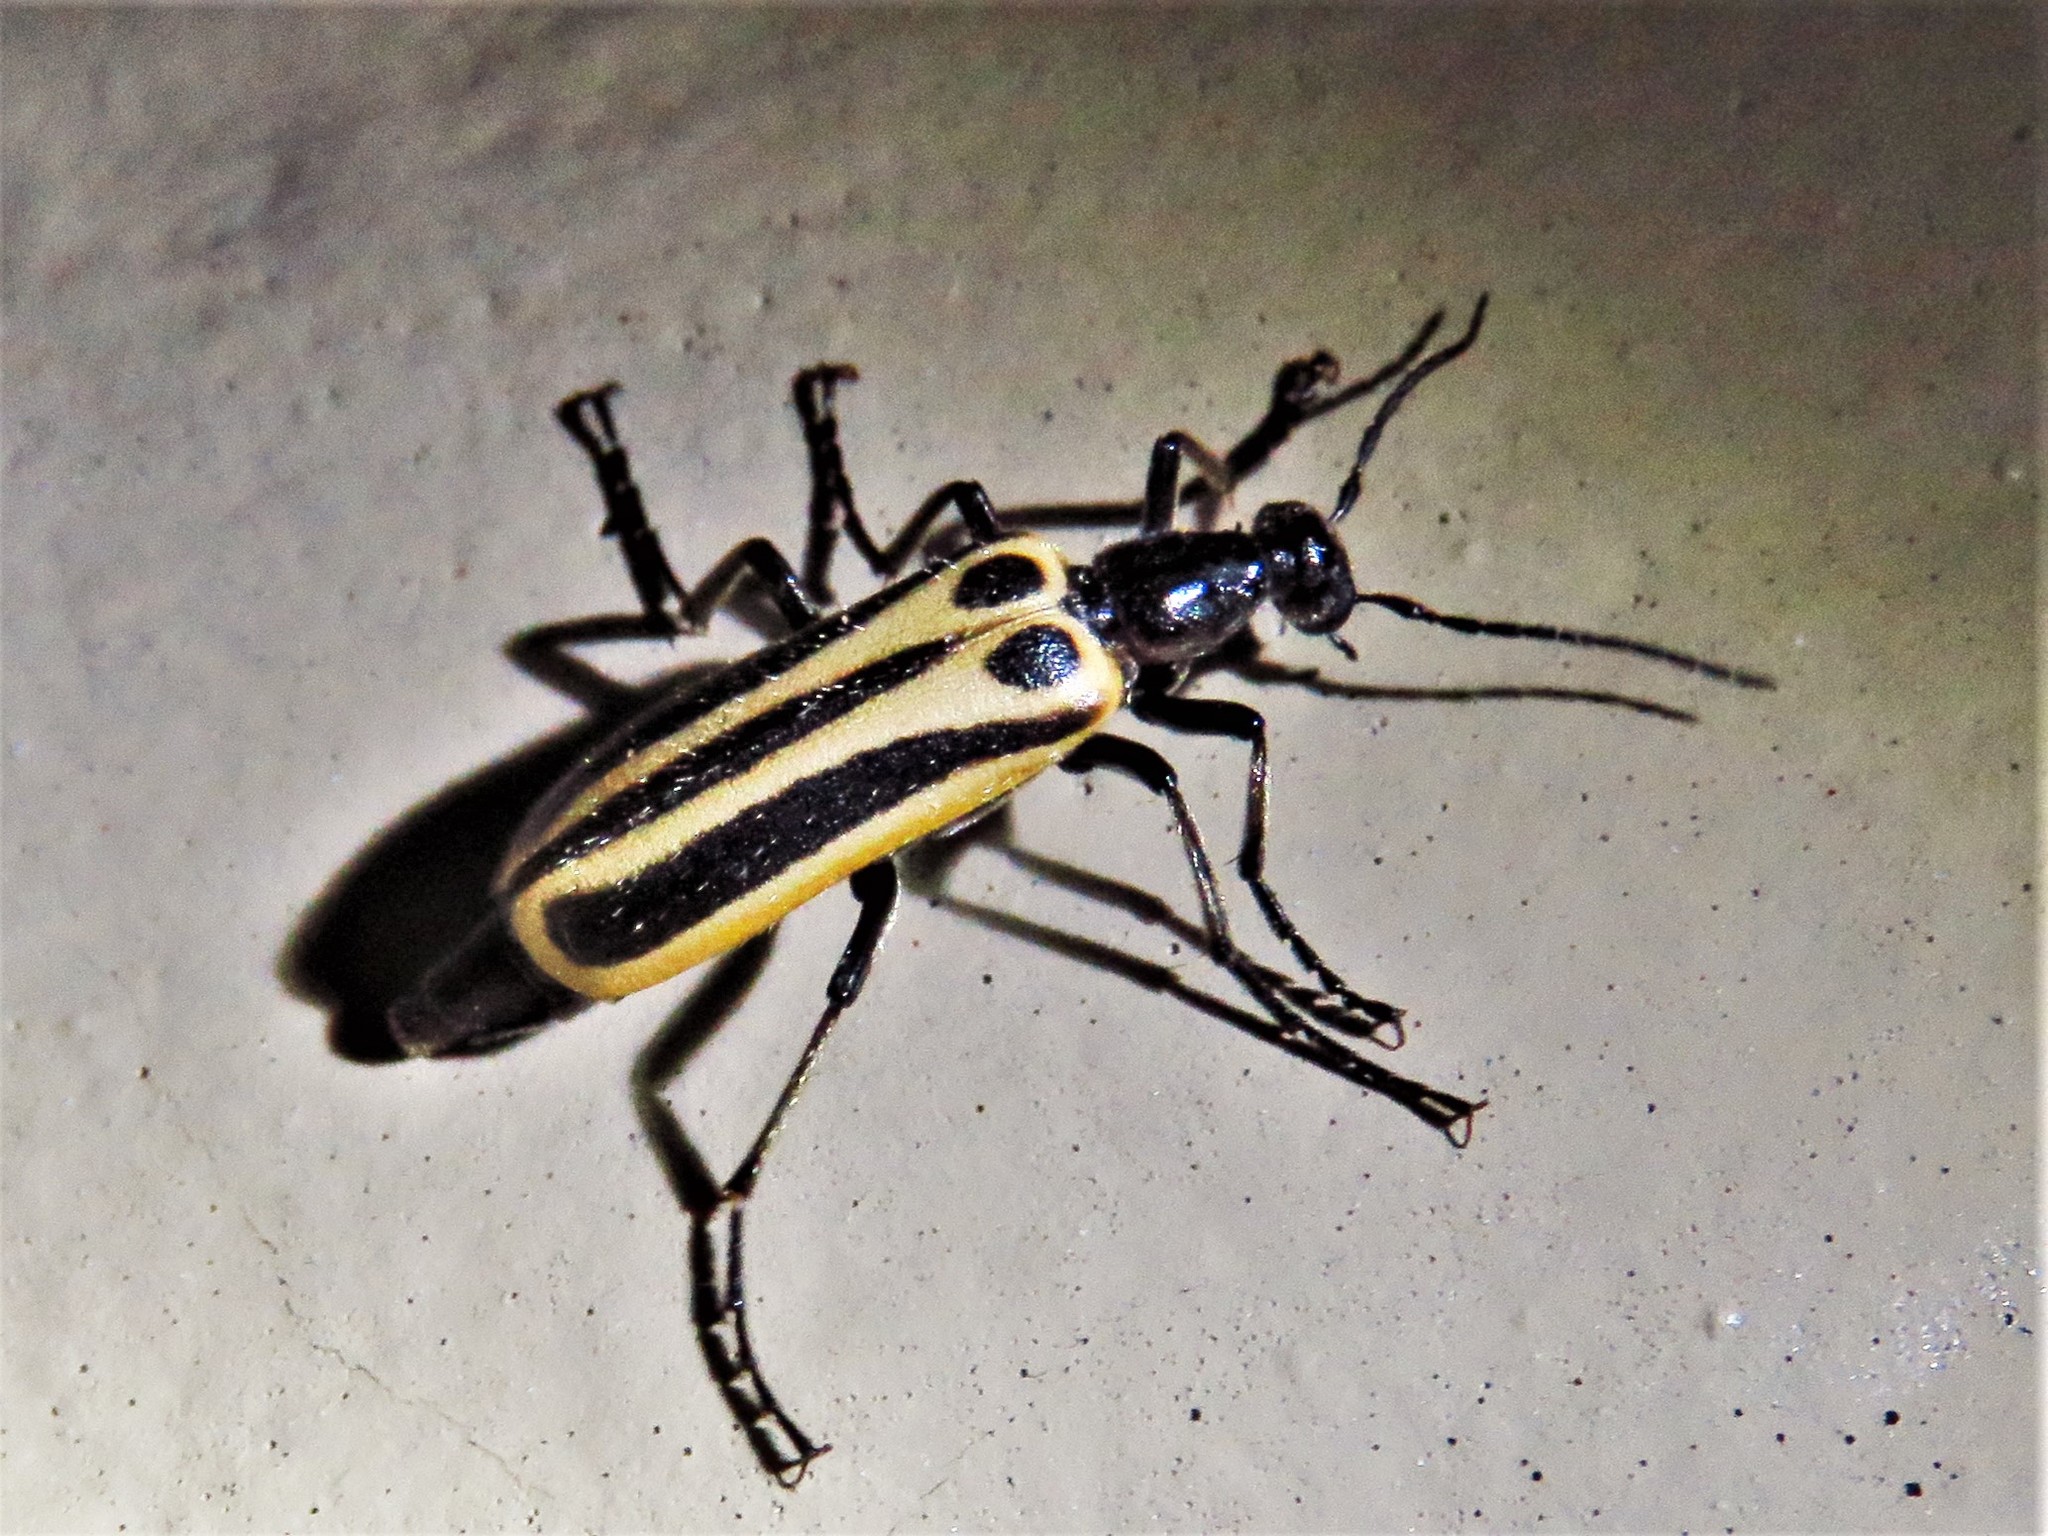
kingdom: Animalia
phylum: Arthropoda
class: Insecta
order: Coleoptera
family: Meloidae
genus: Pyrota
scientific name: Pyrota invita
